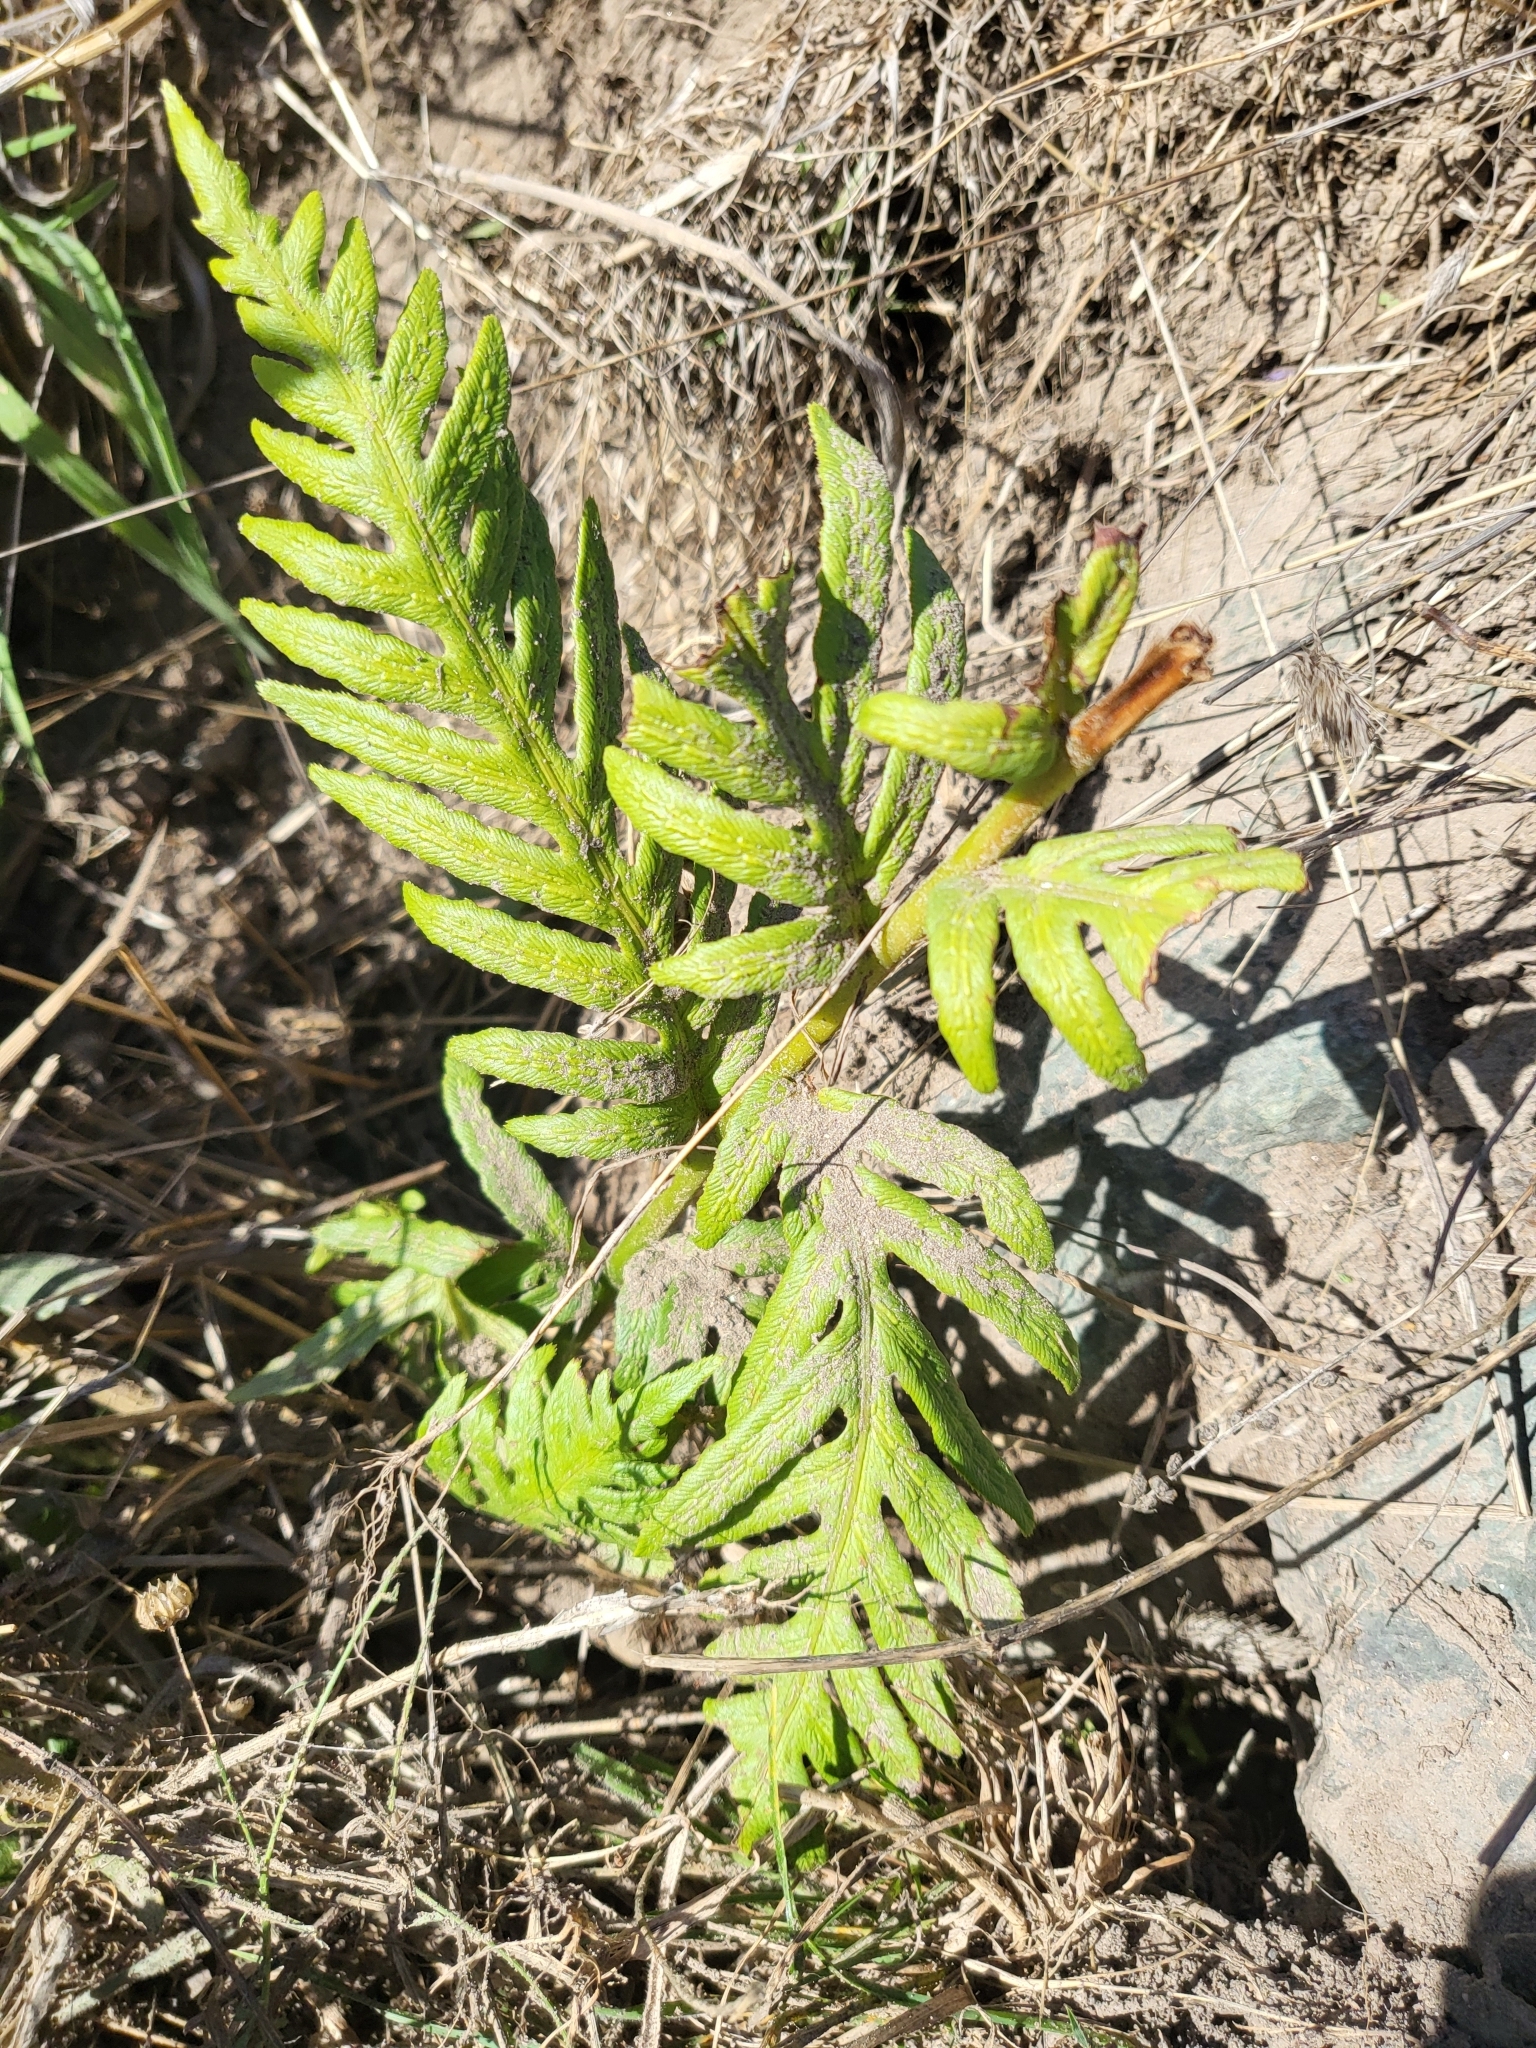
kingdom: Plantae
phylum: Tracheophyta
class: Polypodiopsida
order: Polypodiales
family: Blechnaceae
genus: Woodwardia
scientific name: Woodwardia fimbriata
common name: Giant chain fern
